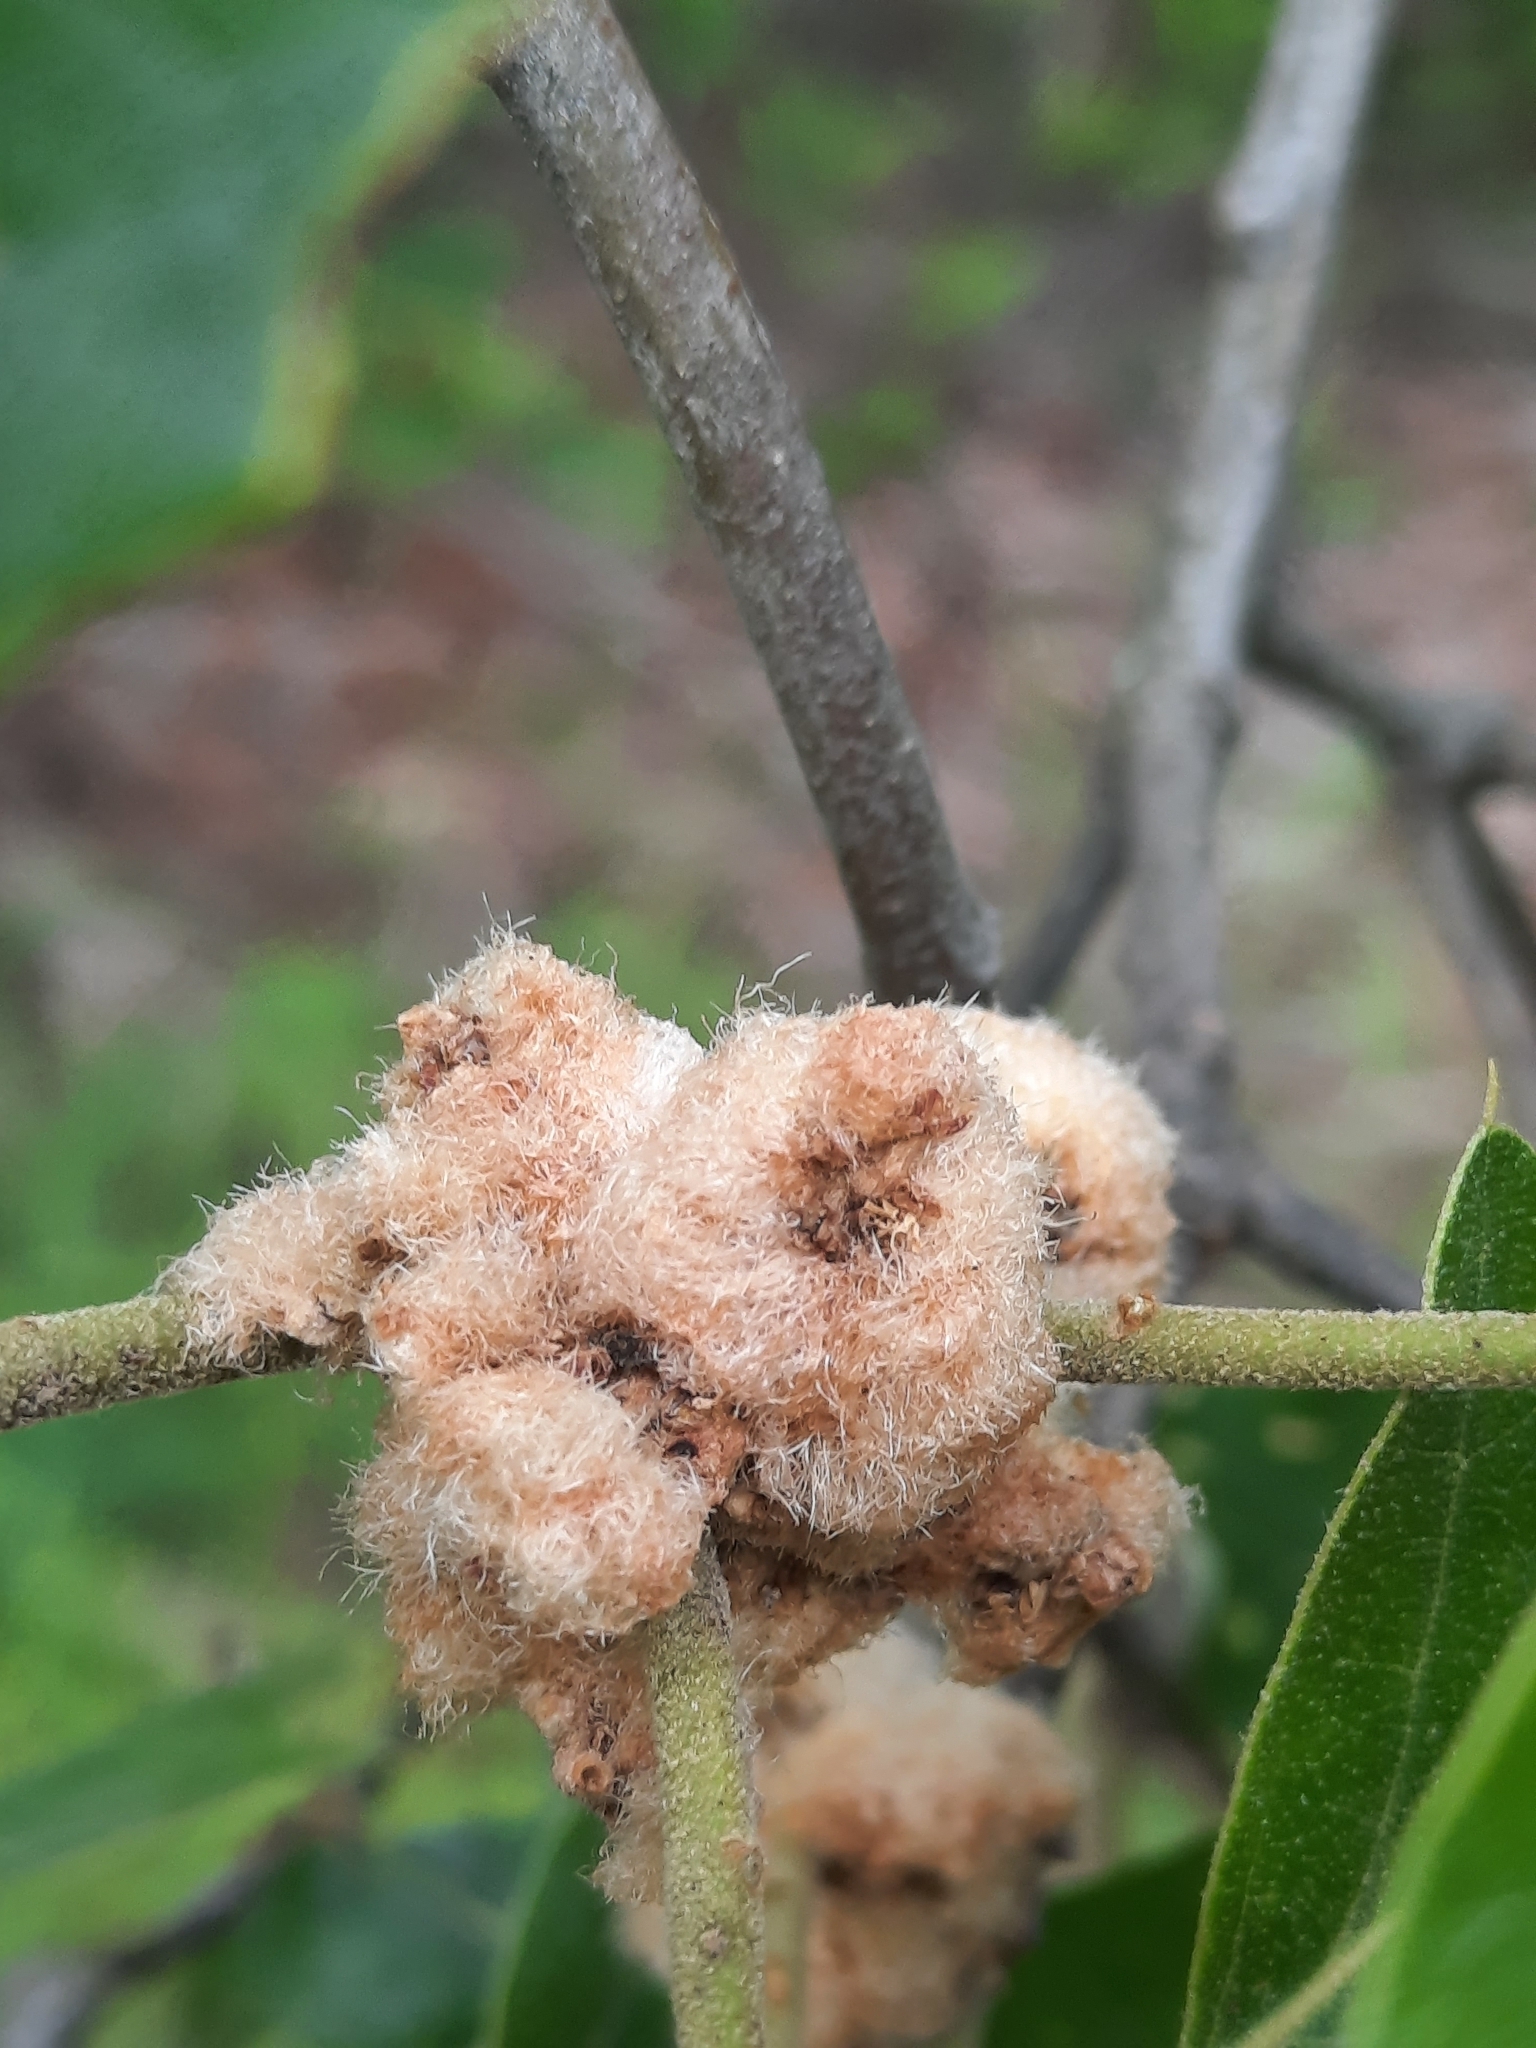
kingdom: Animalia
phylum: Arthropoda
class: Insecta
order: Hymenoptera
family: Cynipidae
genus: Callirhytis
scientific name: Callirhytis
